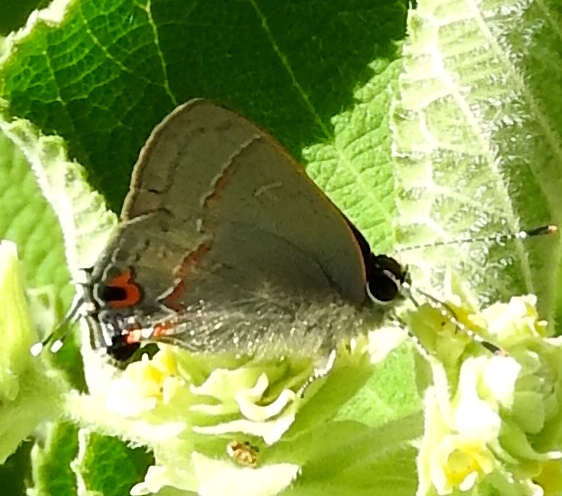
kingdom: Animalia
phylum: Arthropoda
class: Insecta
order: Lepidoptera
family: Lycaenidae
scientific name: Lycaenidae
